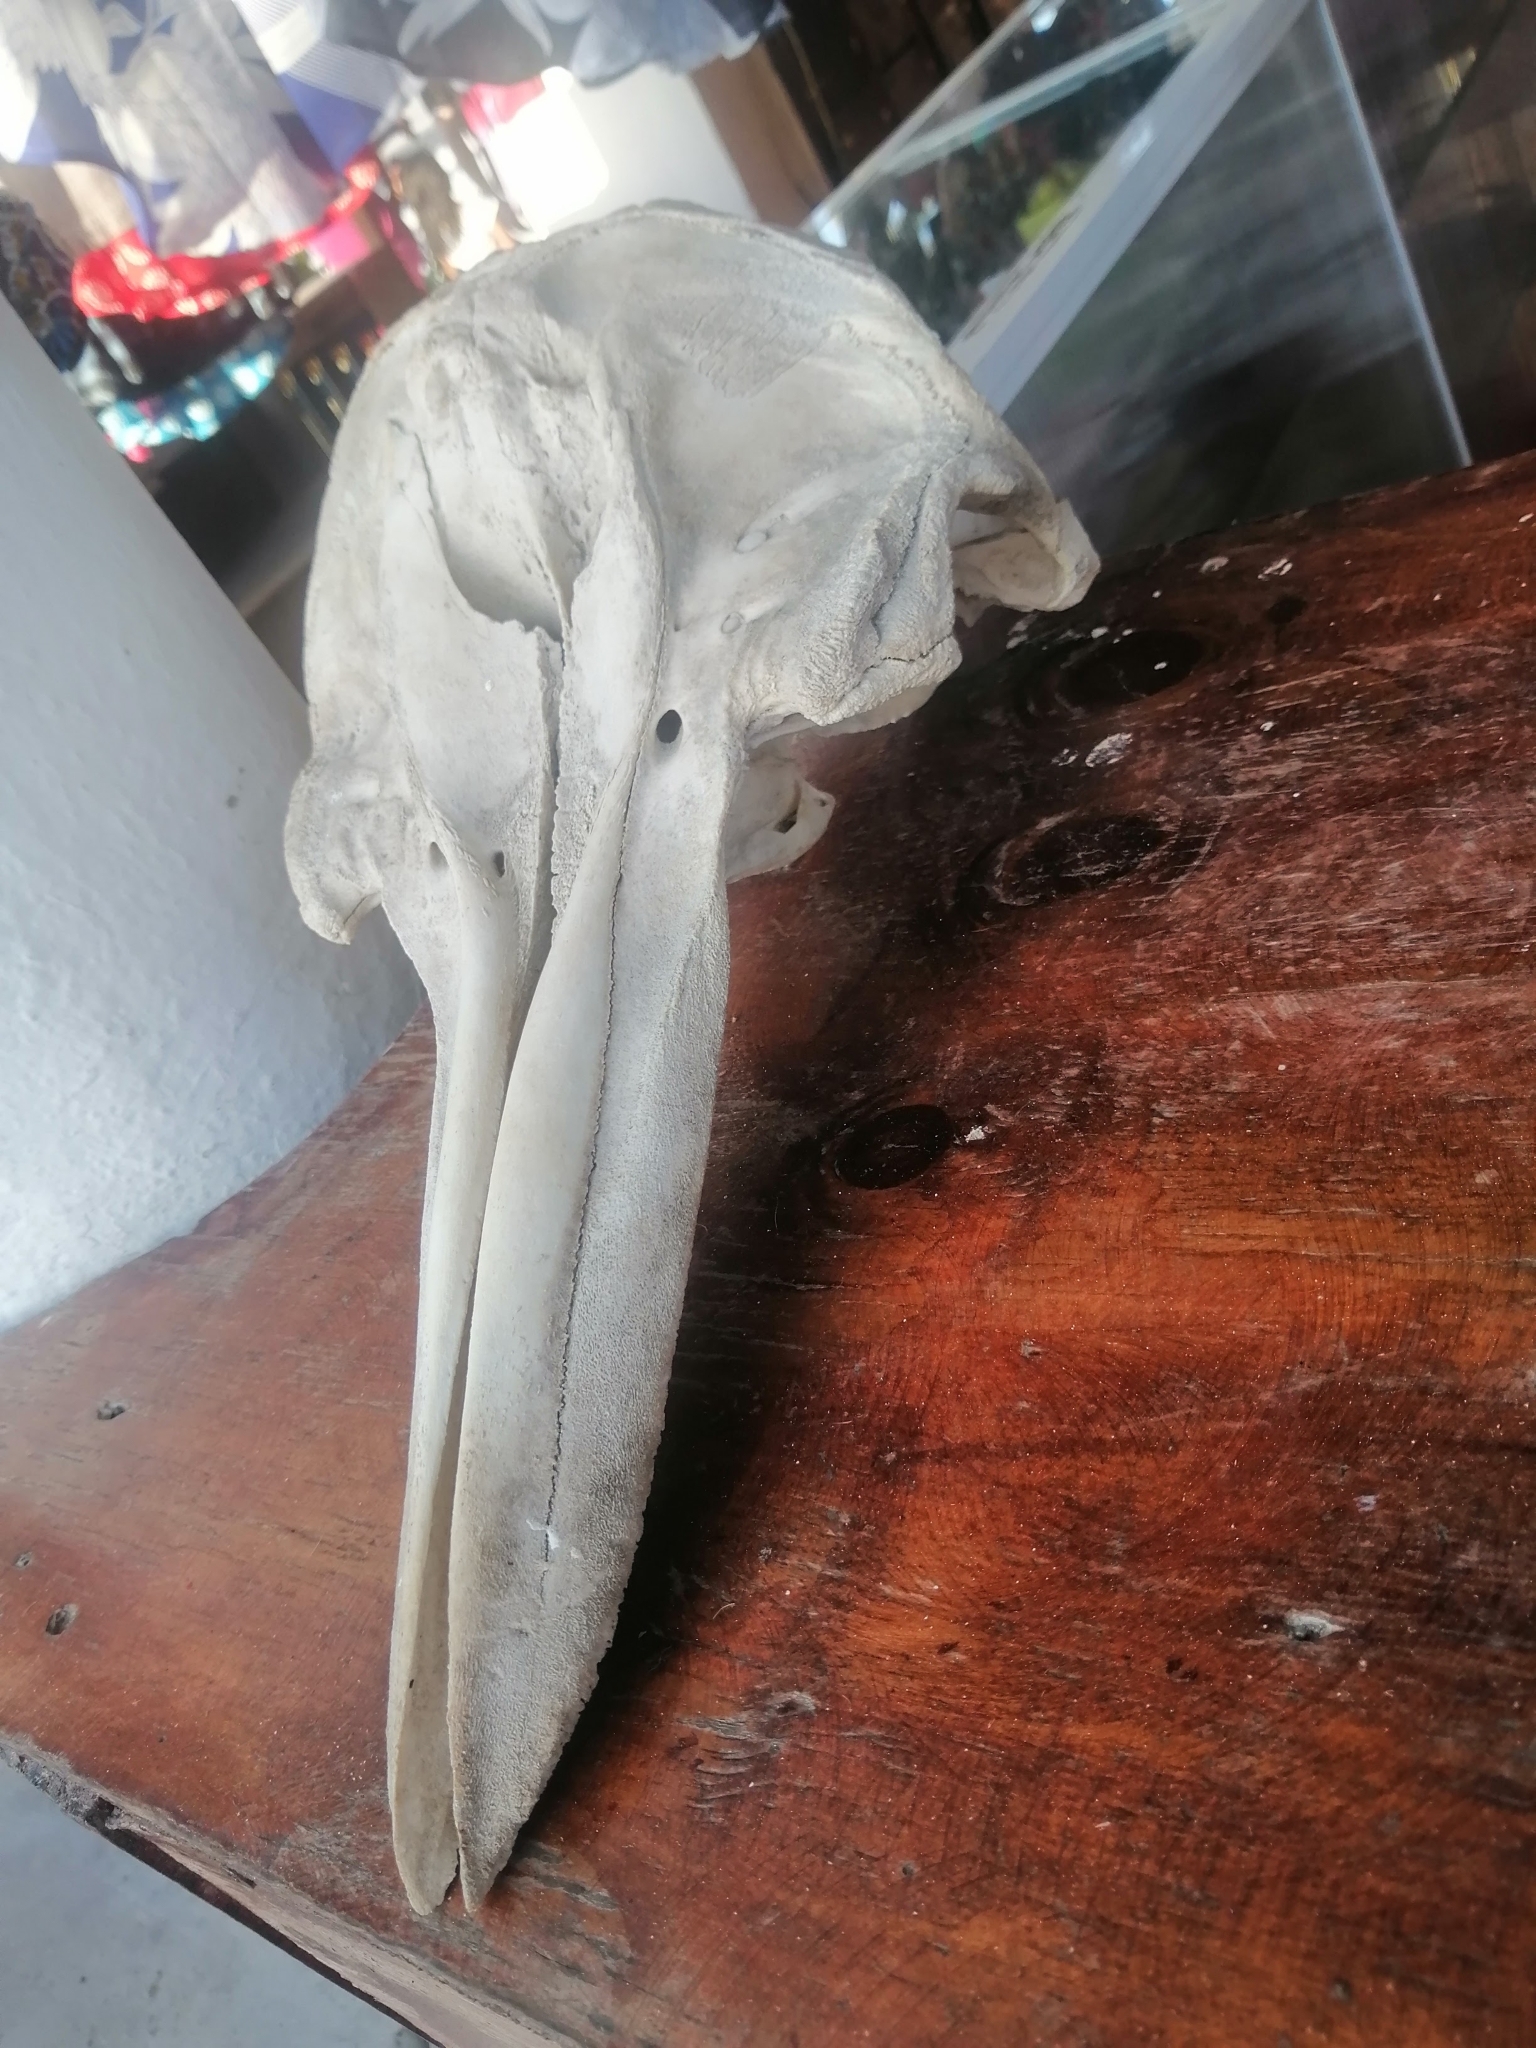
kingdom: Animalia
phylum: Chordata
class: Mammalia
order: Cetacea
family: Delphinidae
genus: Tursiops
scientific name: Tursiops truncatus
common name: Bottlenose dolphin
